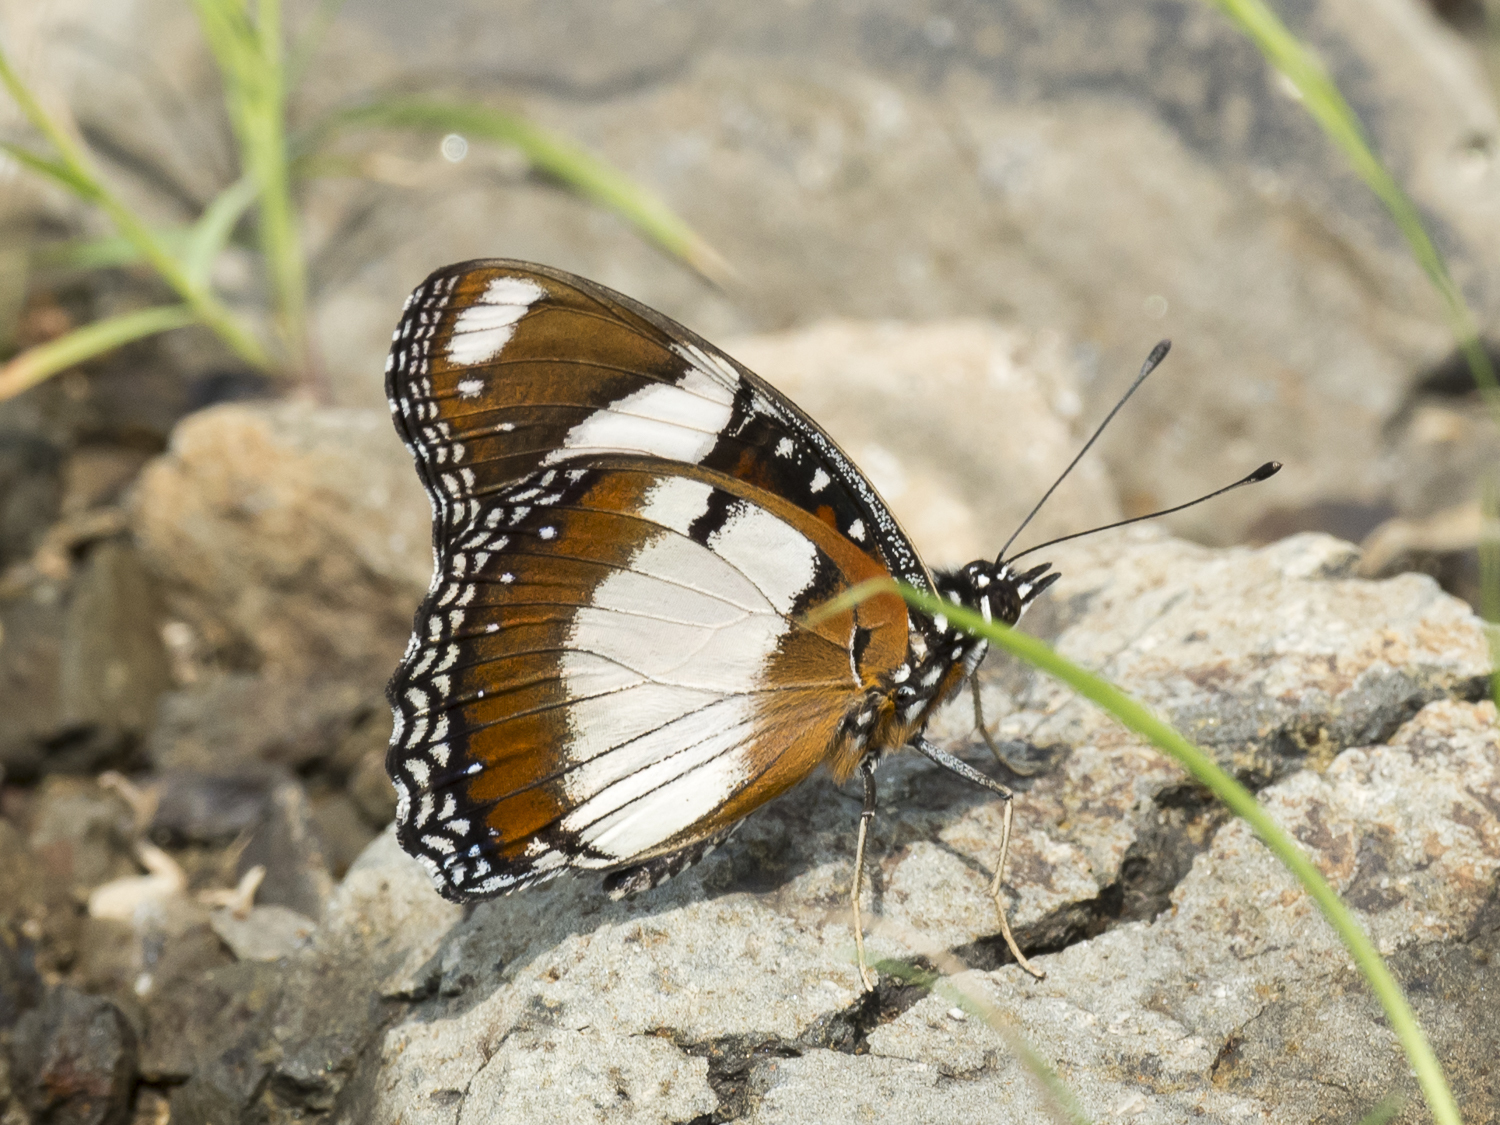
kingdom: Animalia
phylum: Arthropoda
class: Insecta
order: Lepidoptera
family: Nymphalidae
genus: Hypolimnas
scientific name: Hypolimnas misippus
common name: False plain tiger
